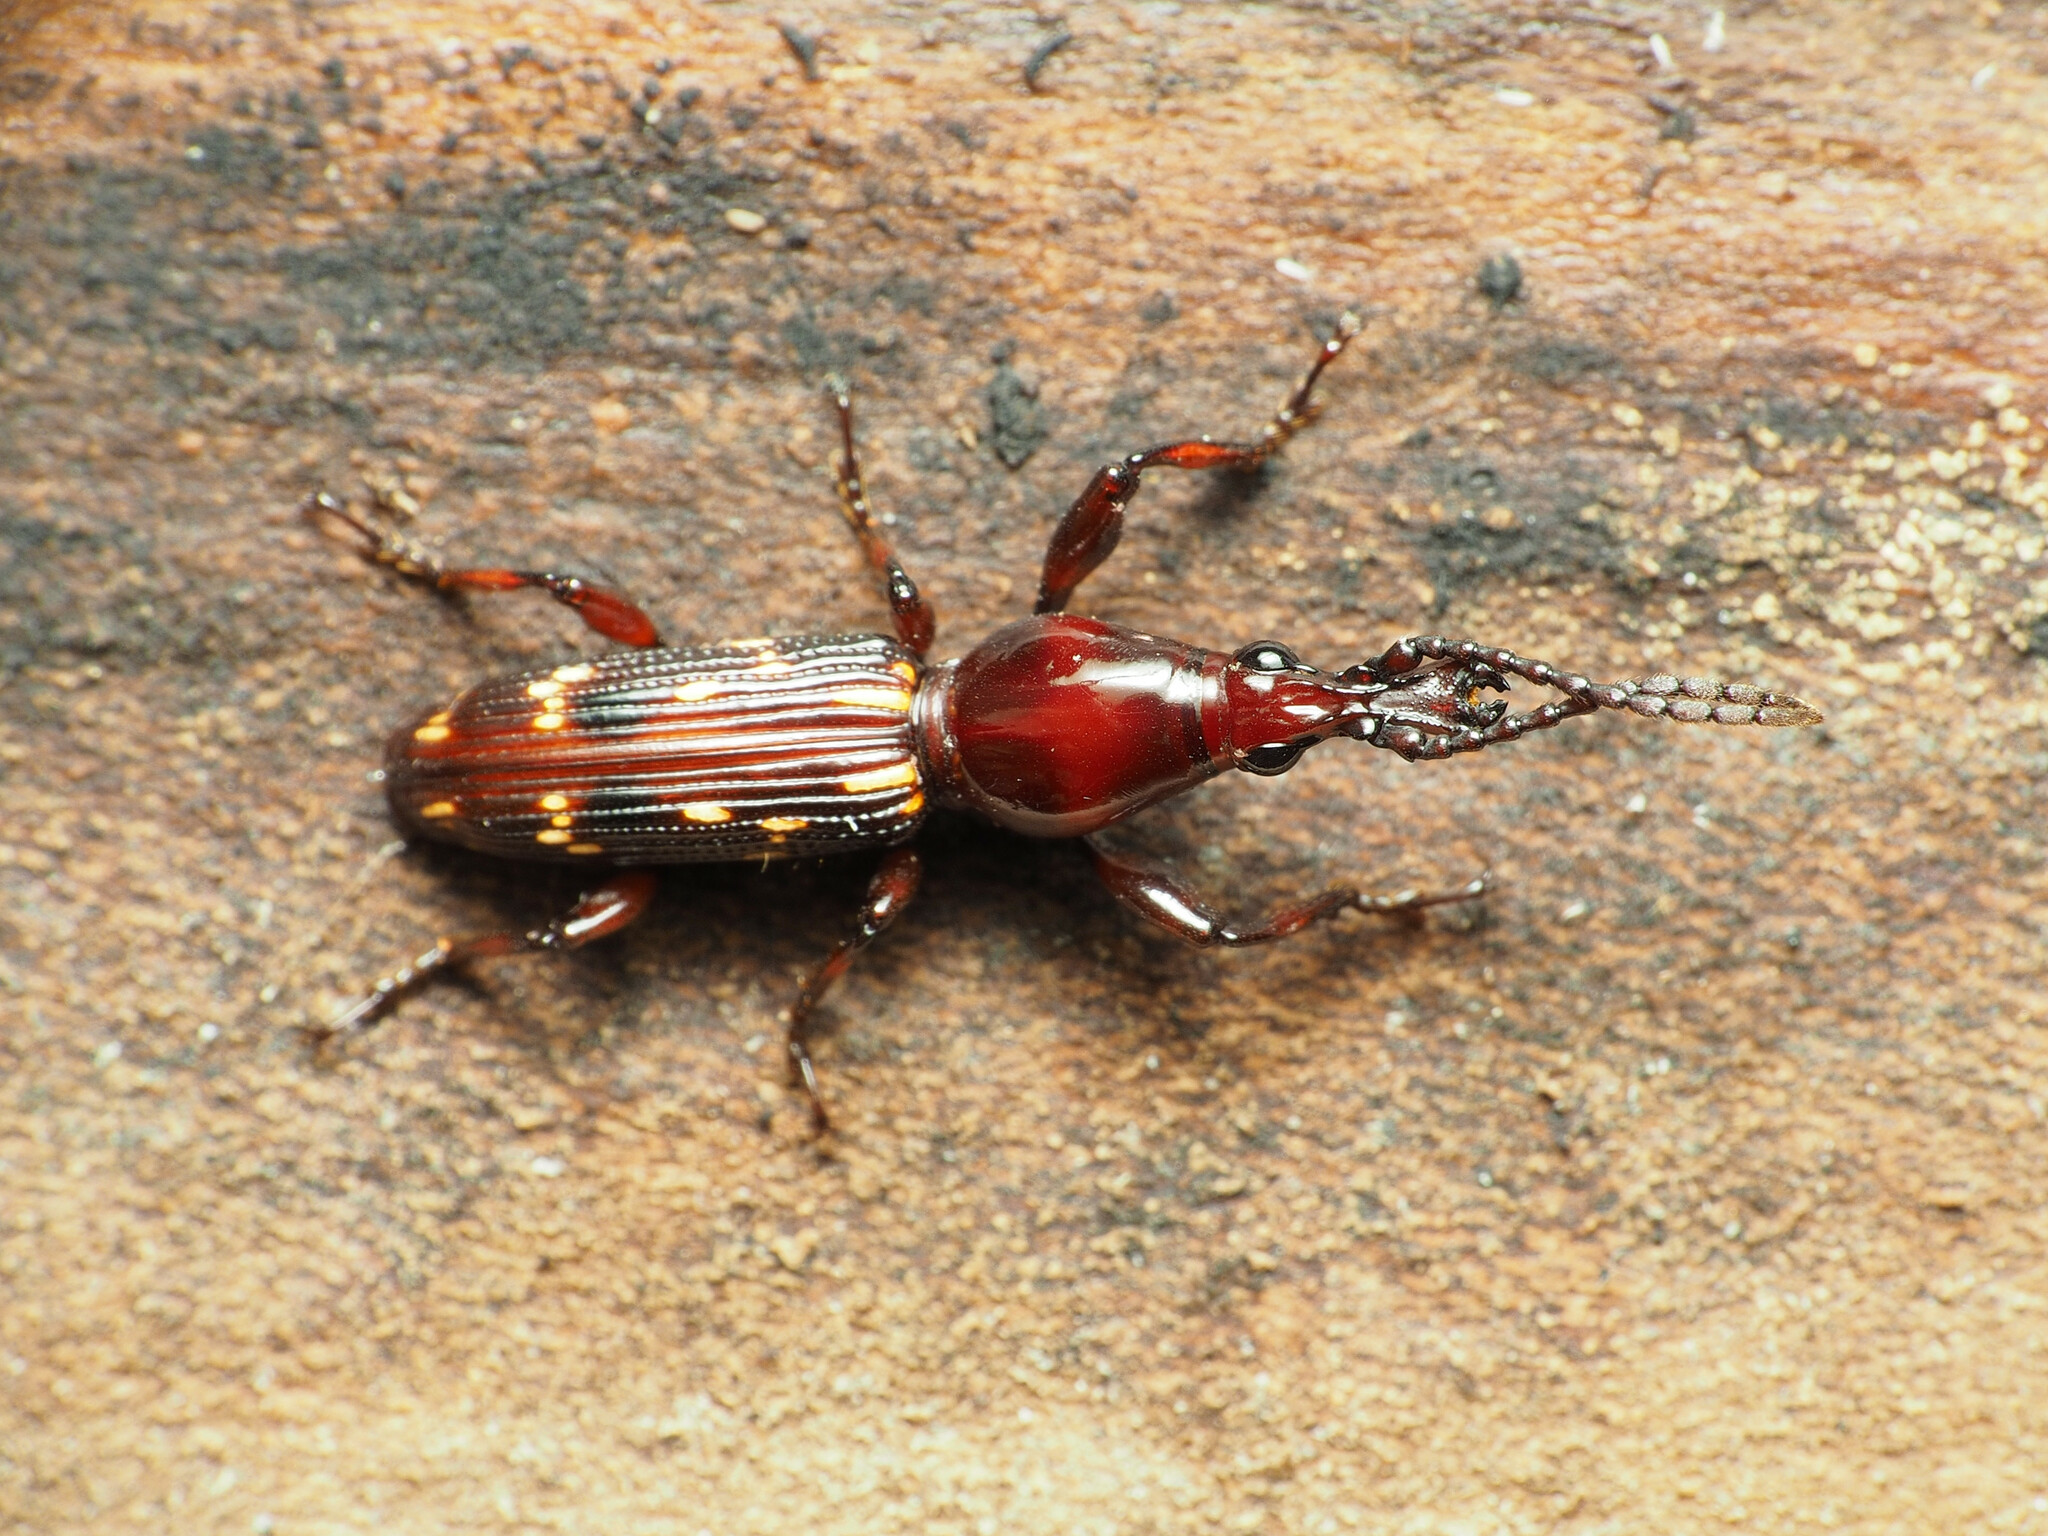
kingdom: Animalia
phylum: Arthropoda
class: Insecta
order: Coleoptera
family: Brentidae
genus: Arrenodes
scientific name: Arrenodes minutus
